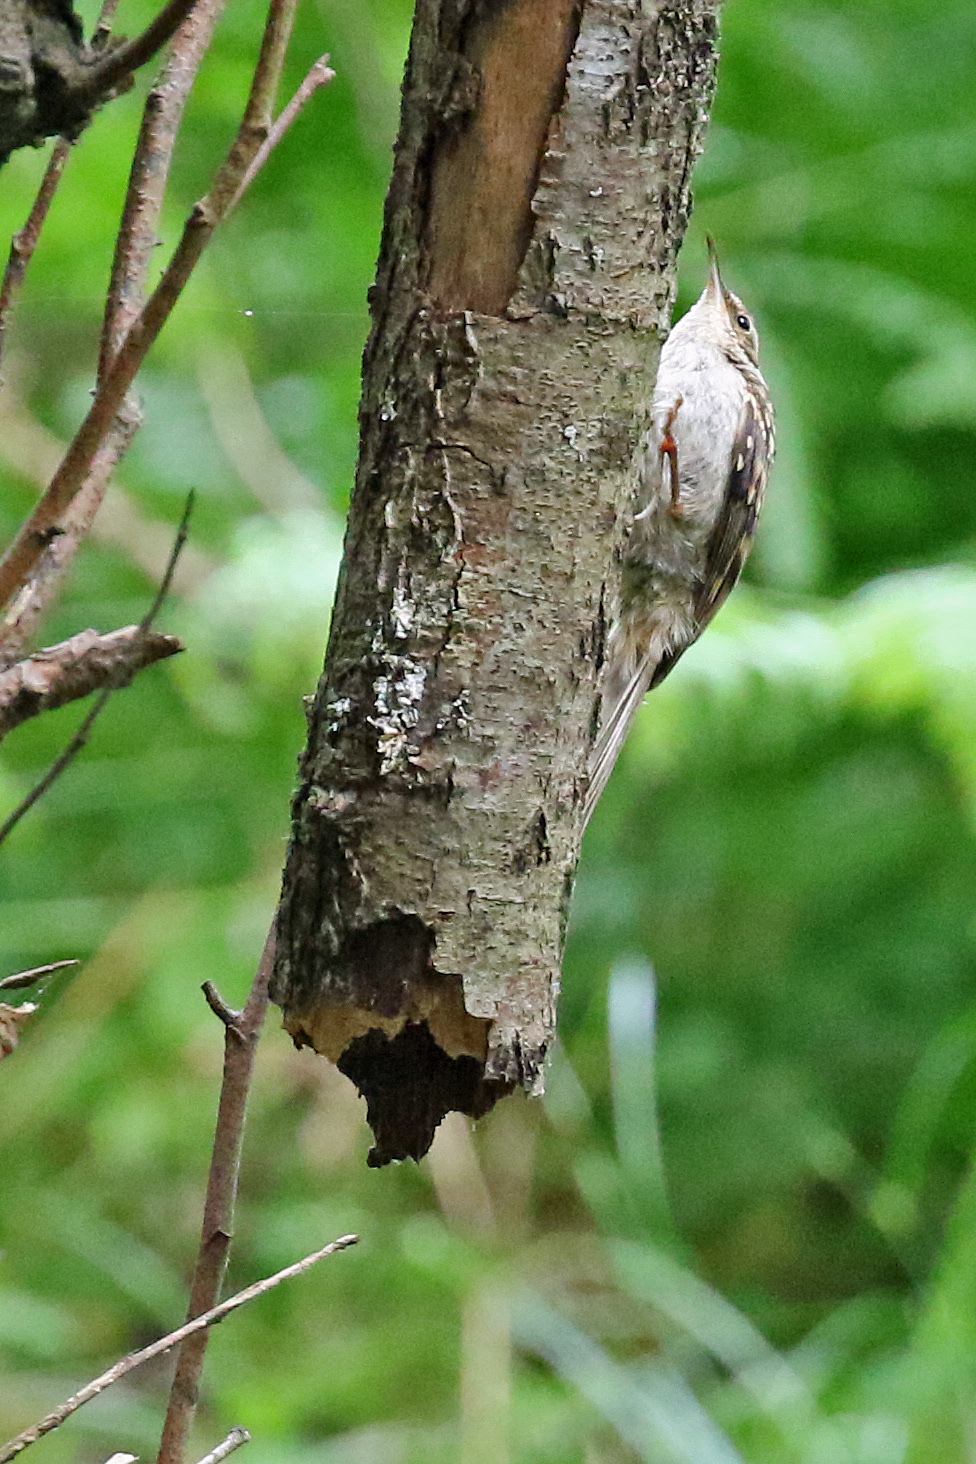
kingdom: Animalia
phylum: Chordata
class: Aves
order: Passeriformes
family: Certhiidae
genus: Certhia
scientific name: Certhia familiaris
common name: Eurasian treecreeper
